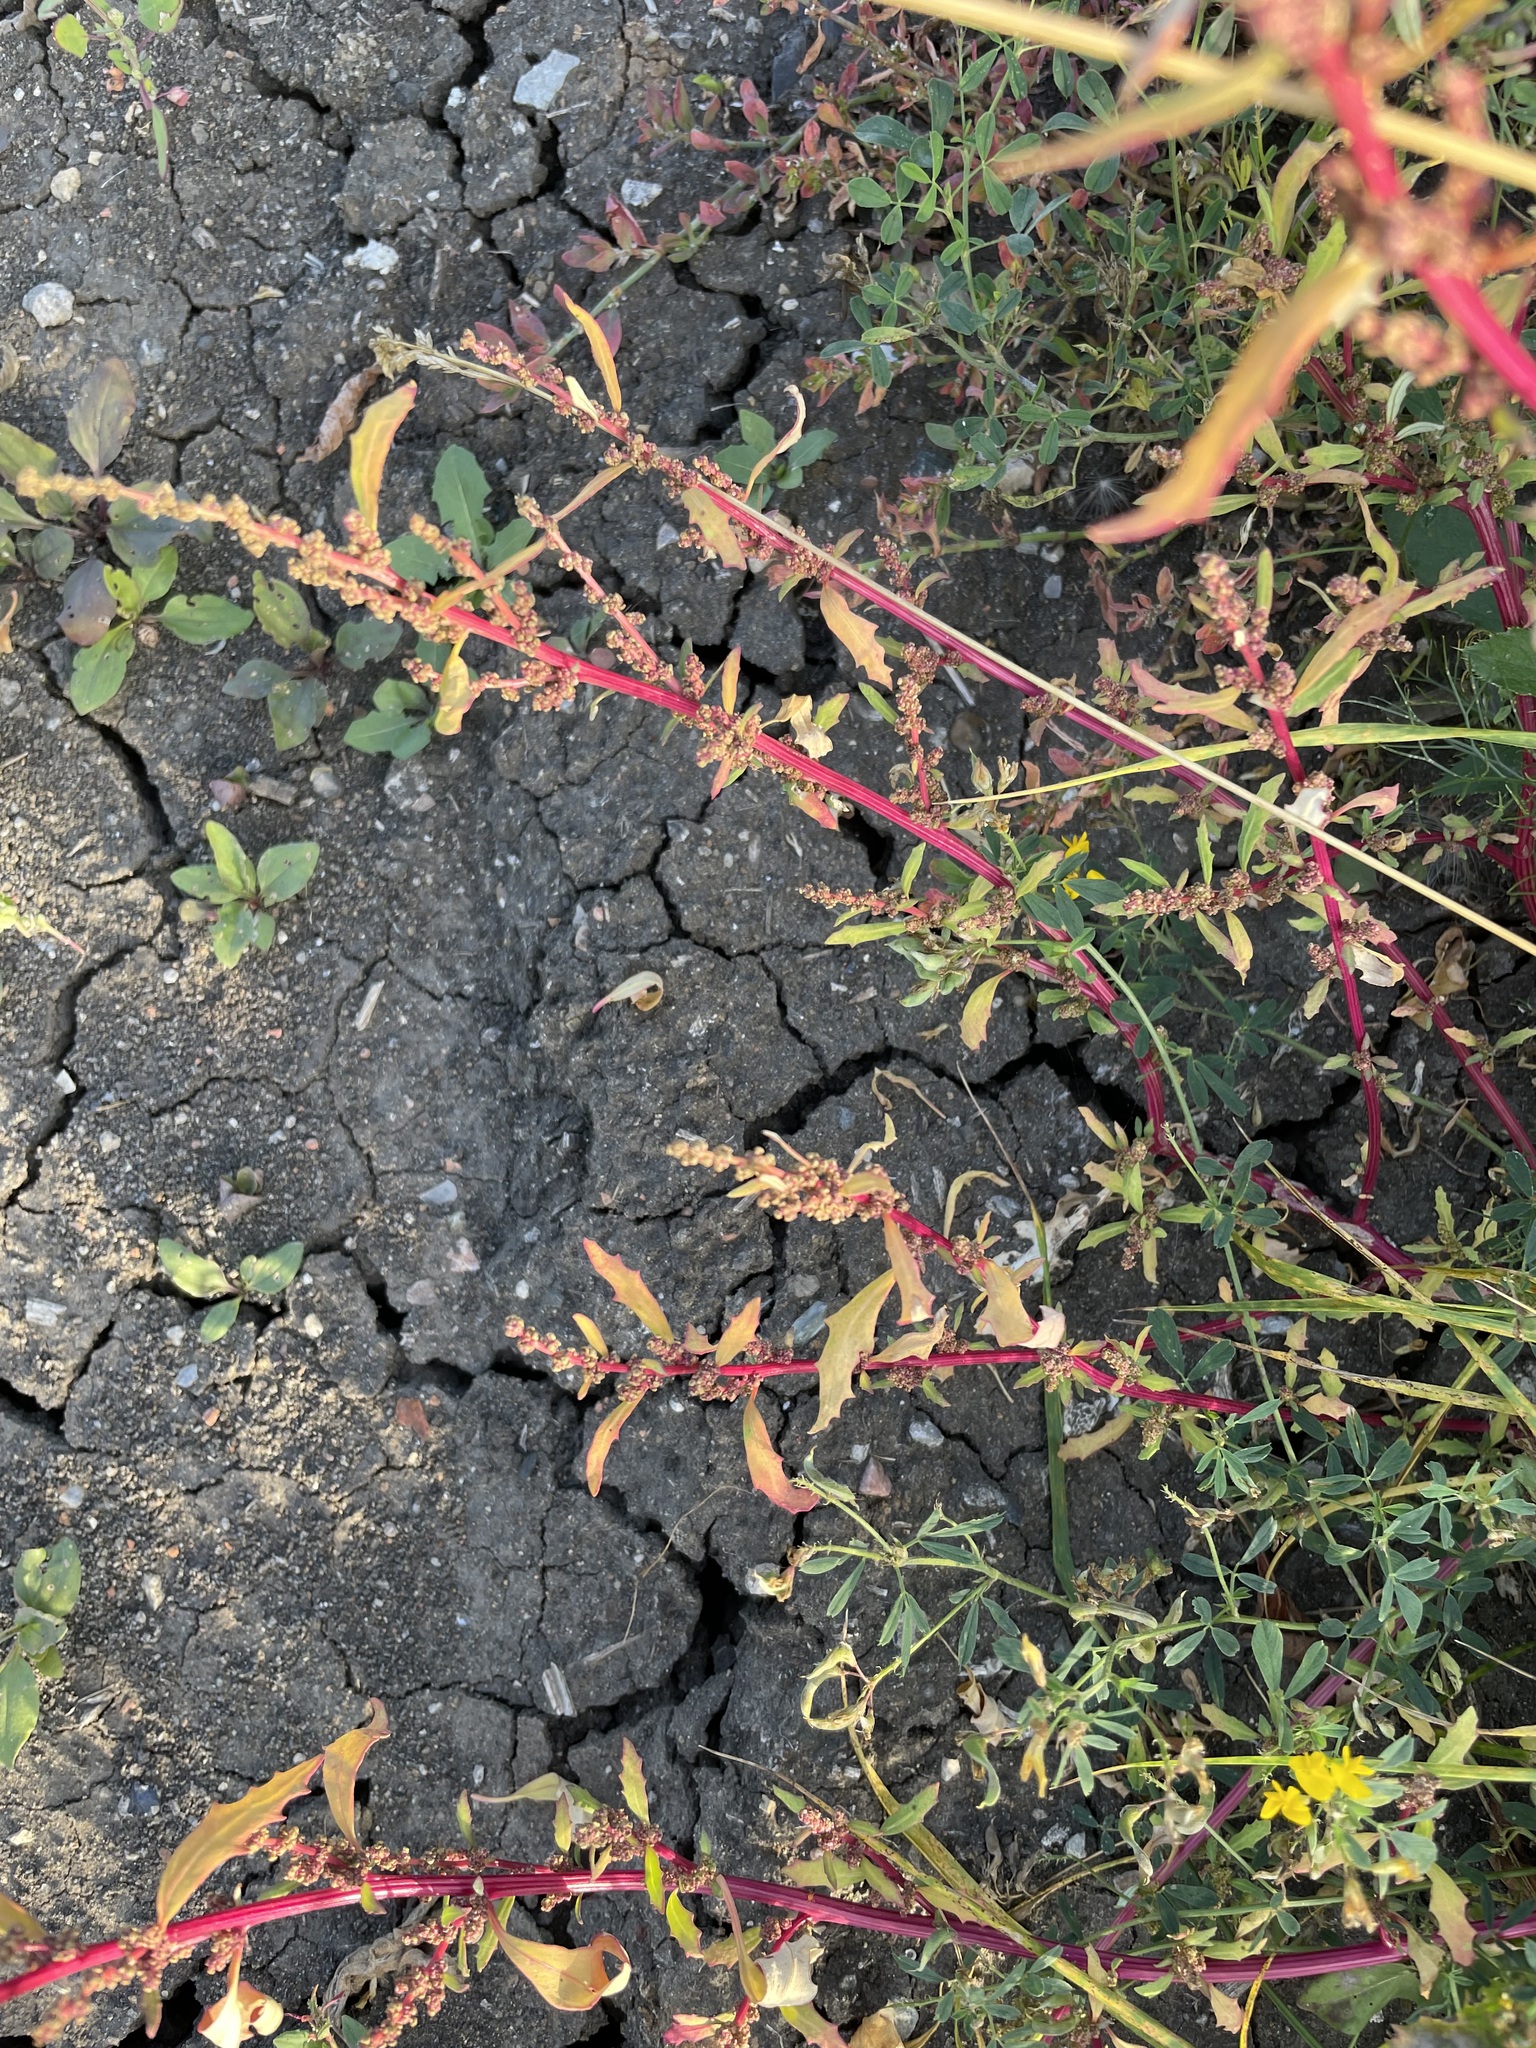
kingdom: Plantae
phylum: Tracheophyta
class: Magnoliopsida
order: Caryophyllales
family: Amaranthaceae
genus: Oxybasis
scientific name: Oxybasis glauca
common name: Glaucous goosefoot
